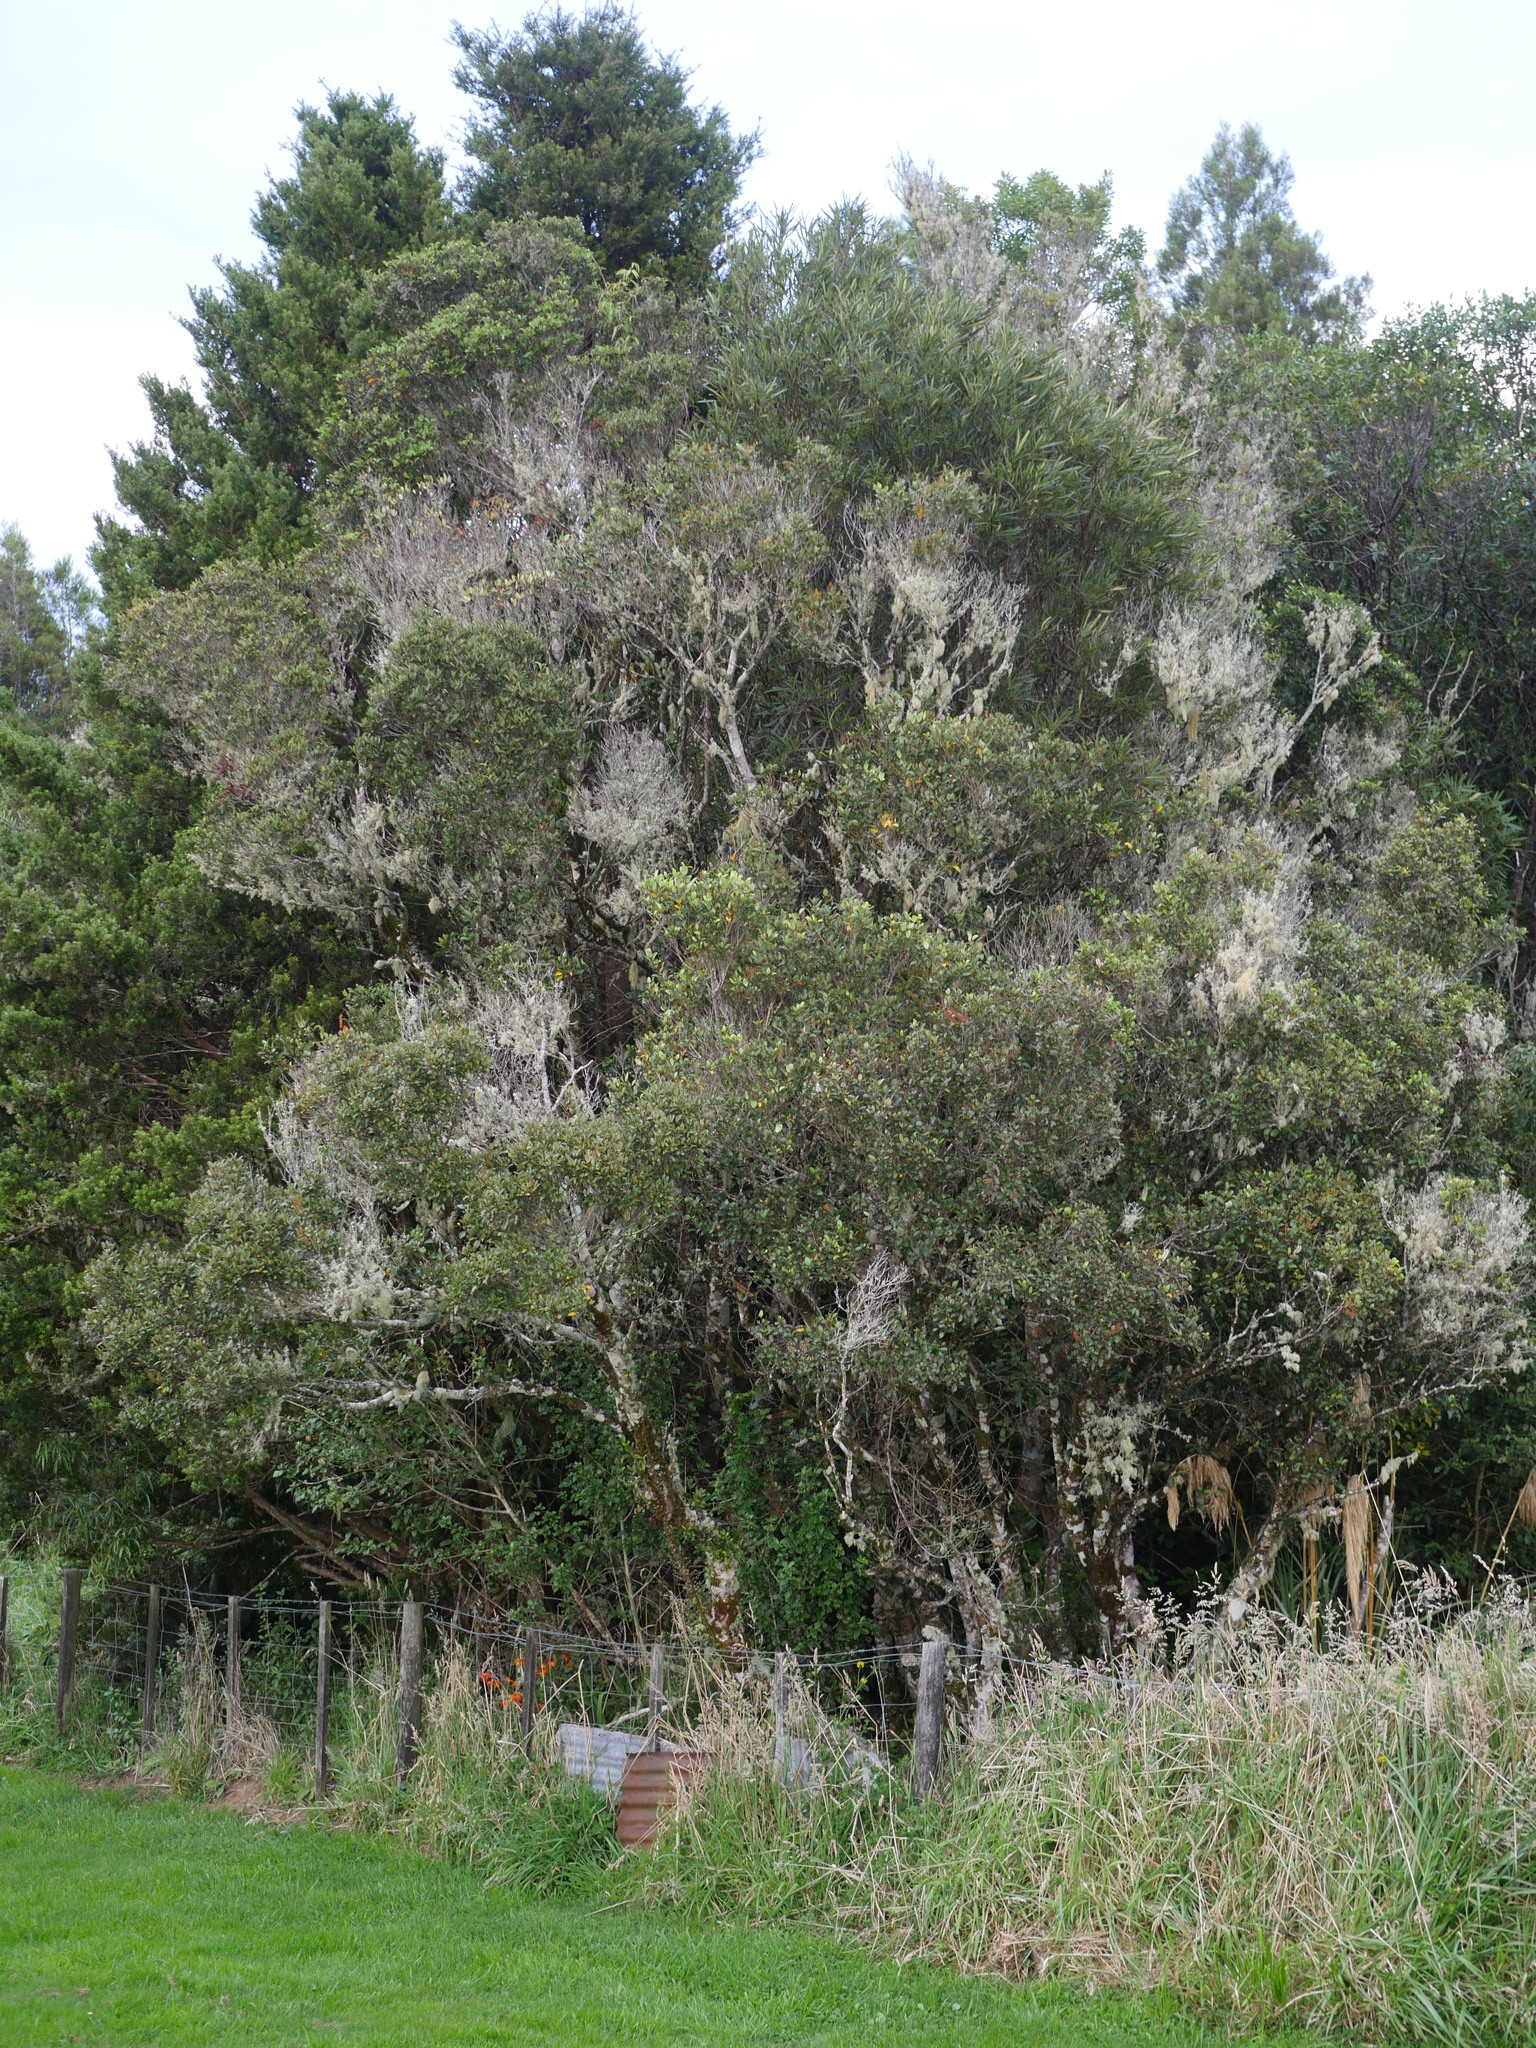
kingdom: Plantae
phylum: Tracheophyta
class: Magnoliopsida
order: Oxalidales
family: Cunoniaceae
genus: Pterophylla
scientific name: Pterophylla racemosa
